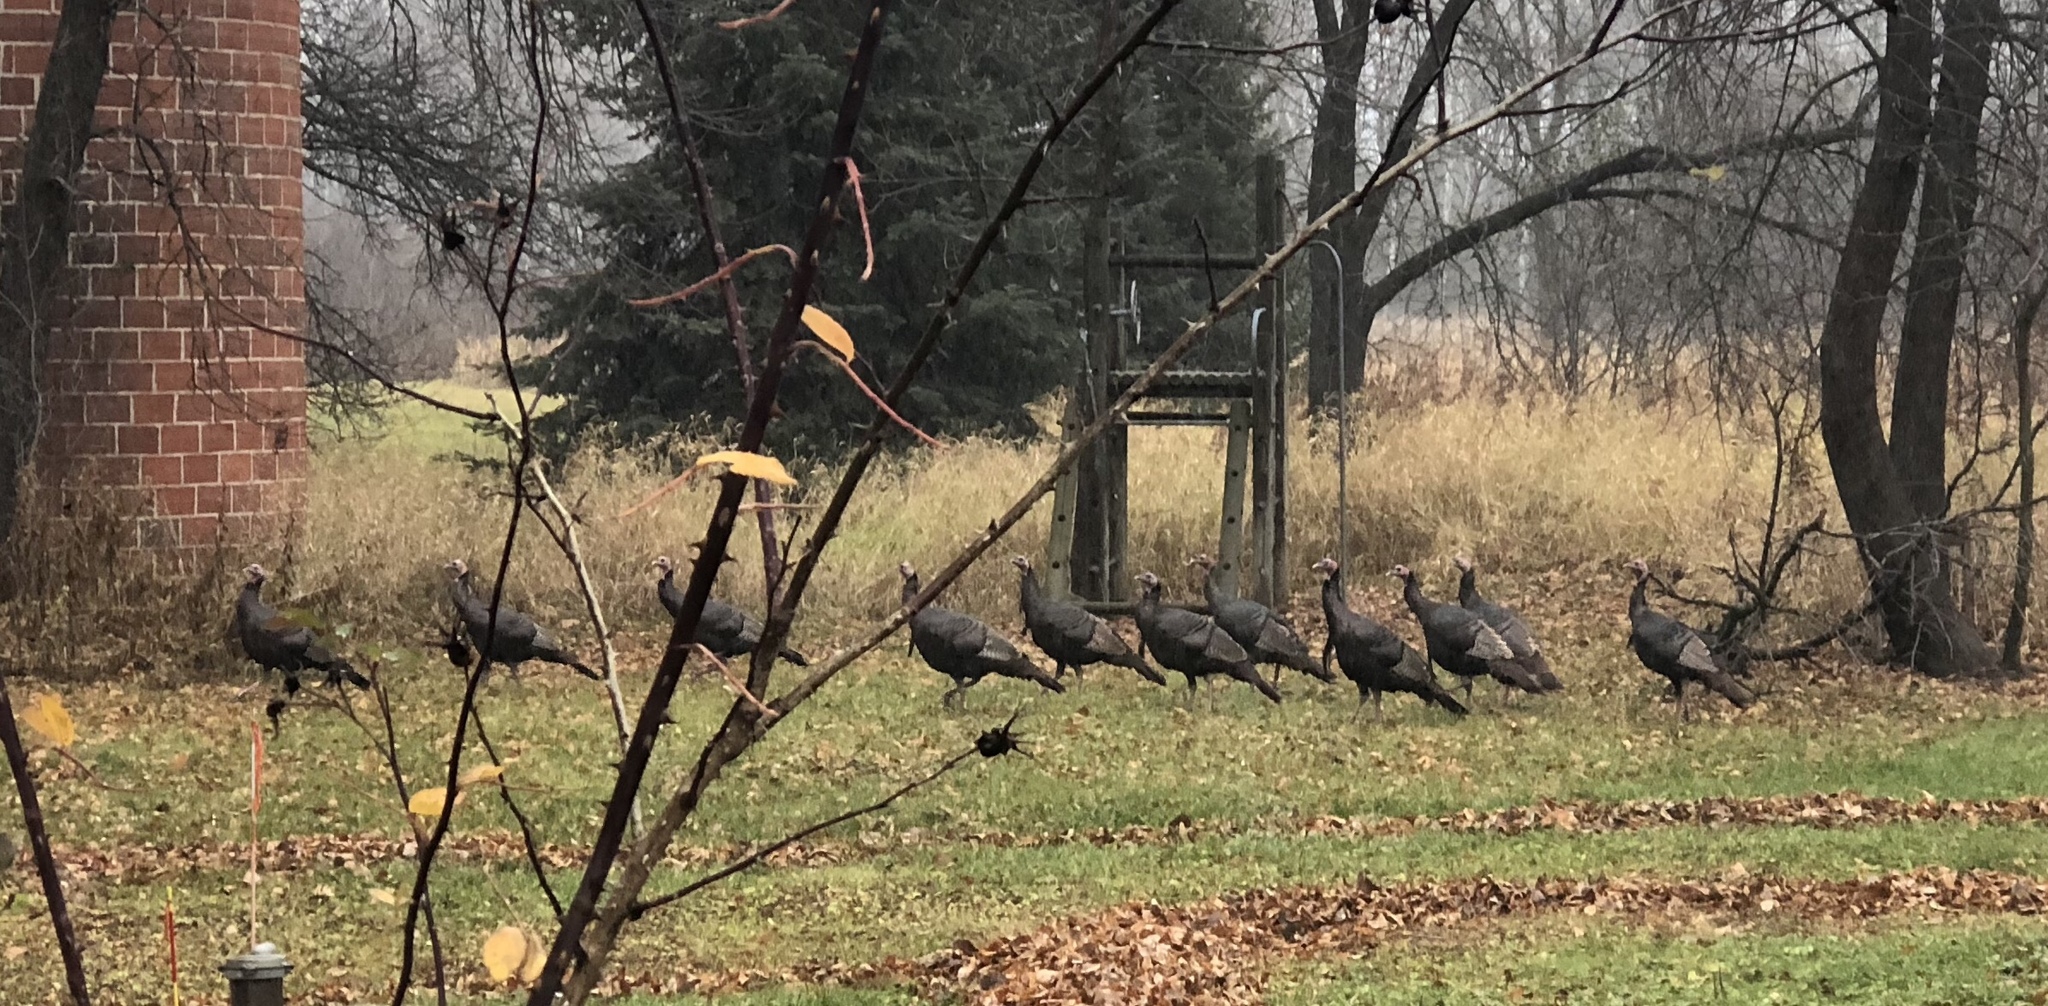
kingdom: Animalia
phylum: Chordata
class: Aves
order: Galliformes
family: Phasianidae
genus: Meleagris
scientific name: Meleagris gallopavo
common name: Wild turkey
